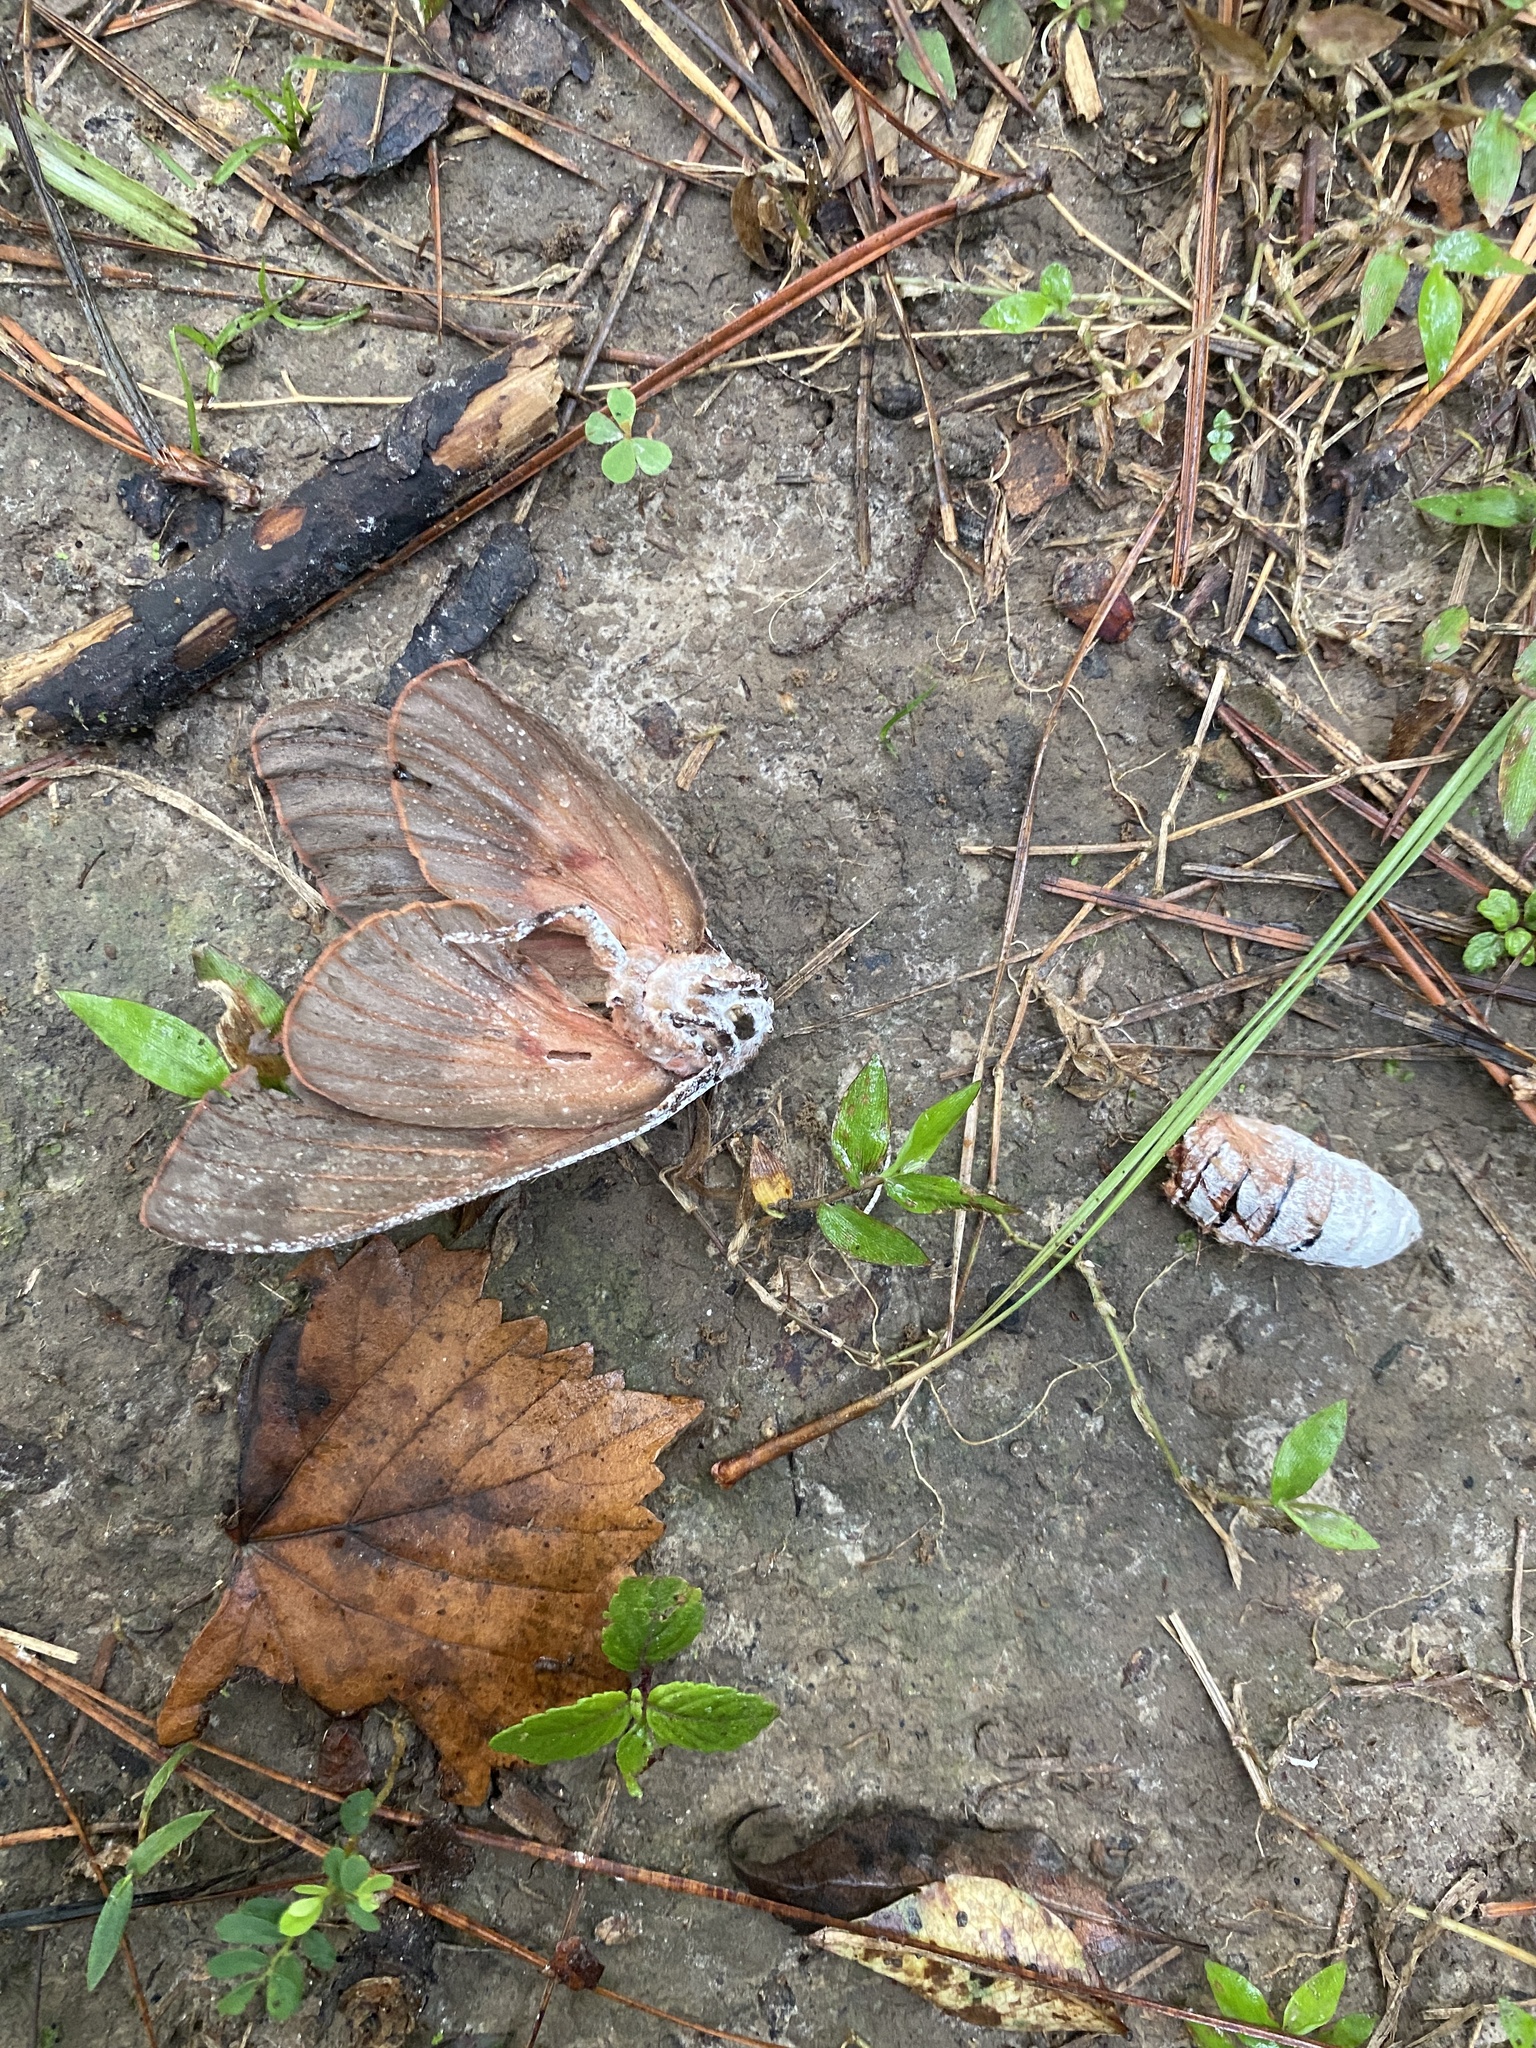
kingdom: Animalia
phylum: Arthropoda
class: Insecta
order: Lepidoptera
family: Saturniidae
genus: Citheronia
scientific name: Citheronia sepulcralis
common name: Pine-devil moth
